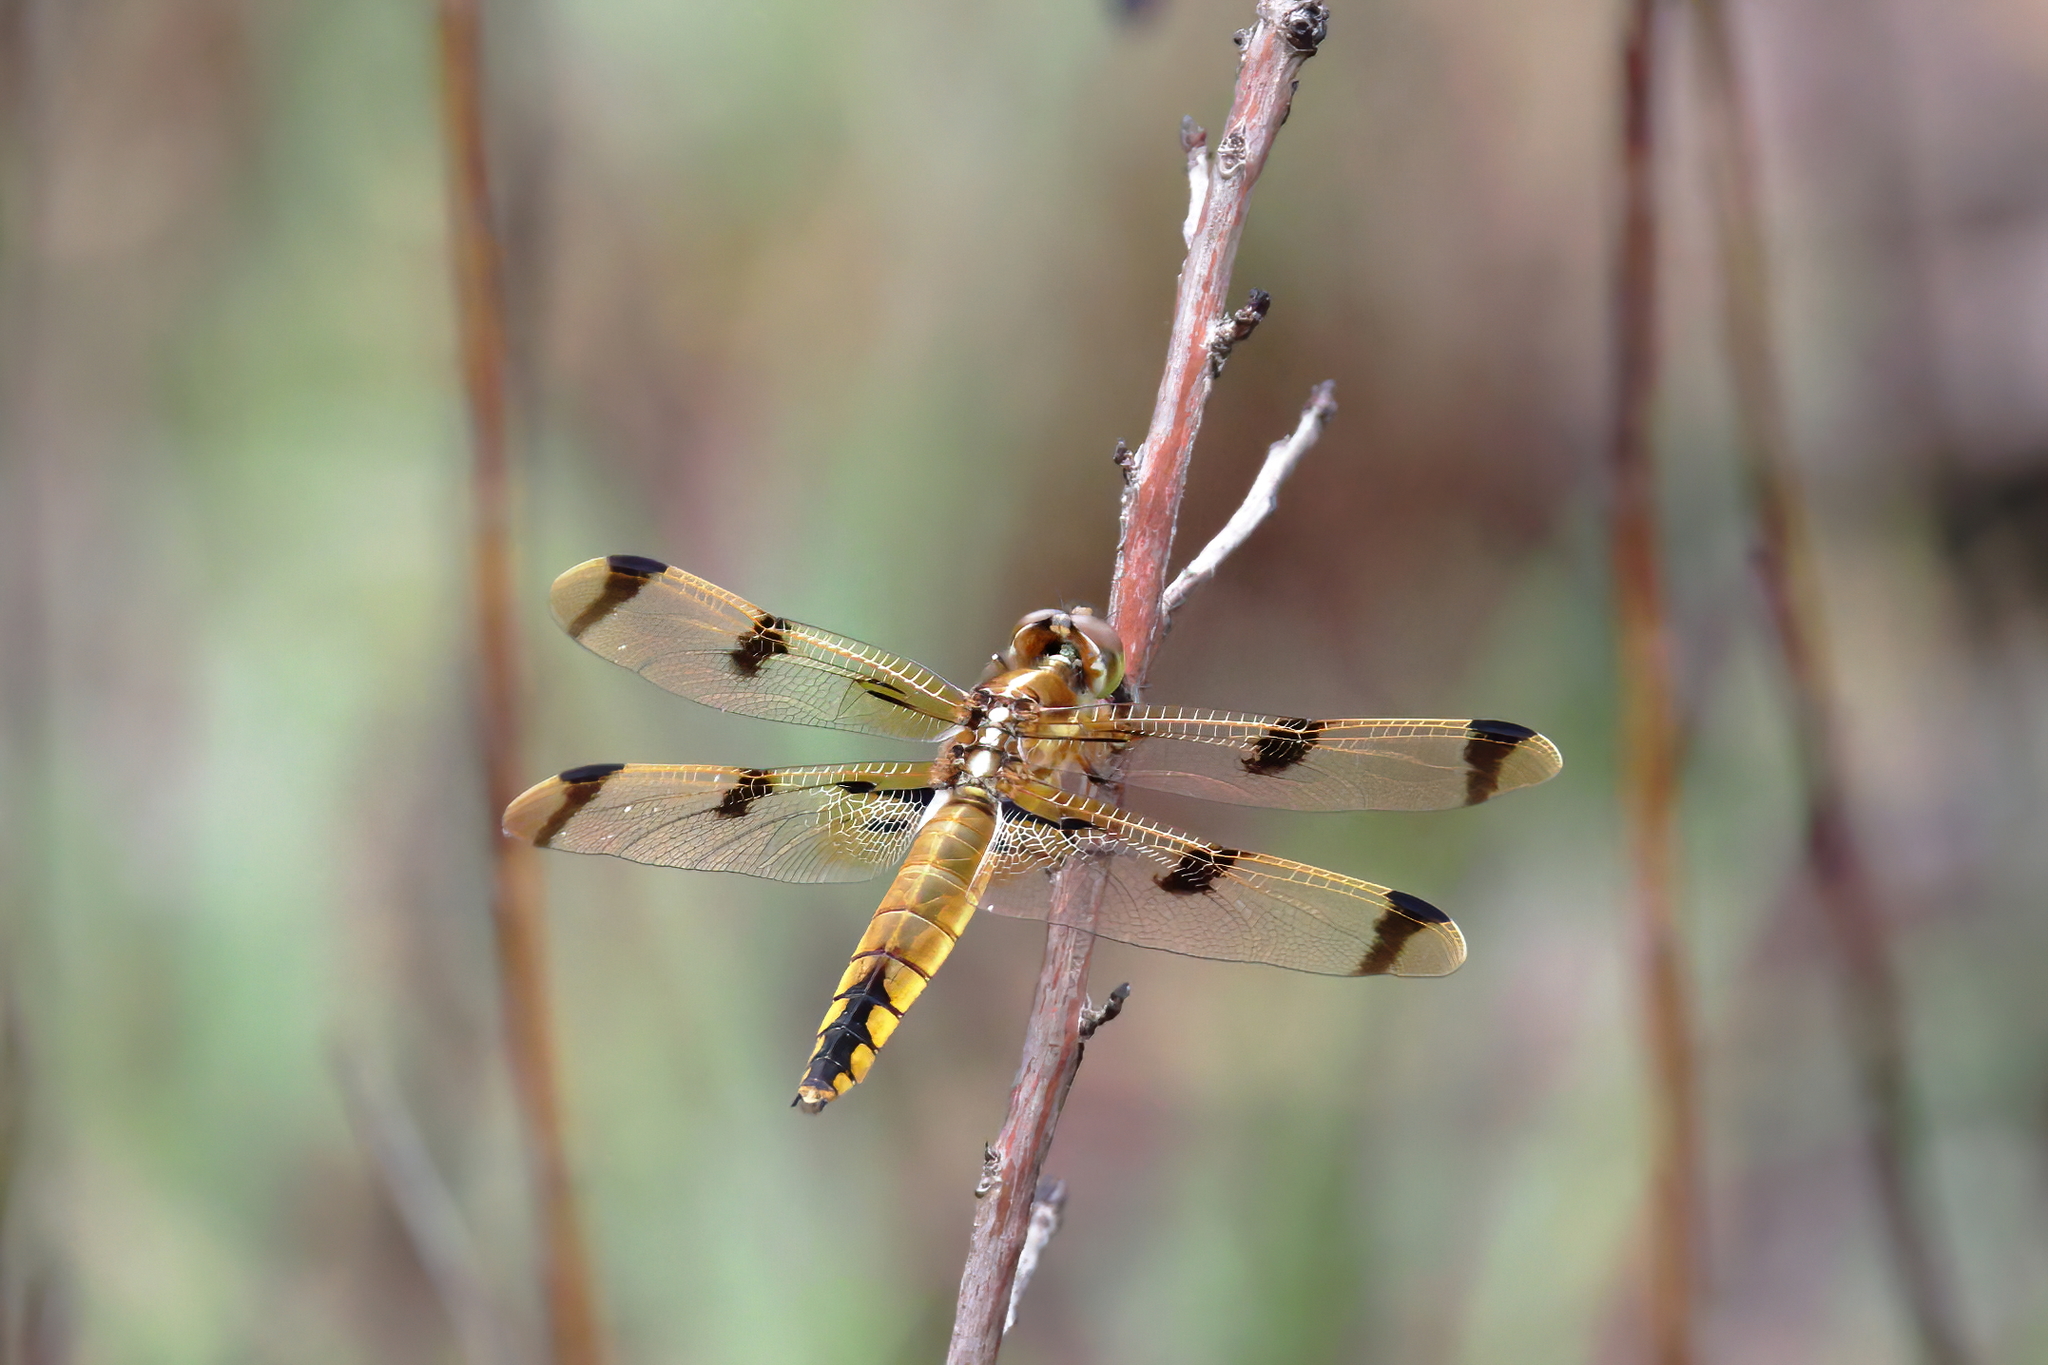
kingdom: Animalia
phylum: Arthropoda
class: Insecta
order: Odonata
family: Libellulidae
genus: Libellula
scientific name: Libellula semifasciata
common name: Painted skimmer
